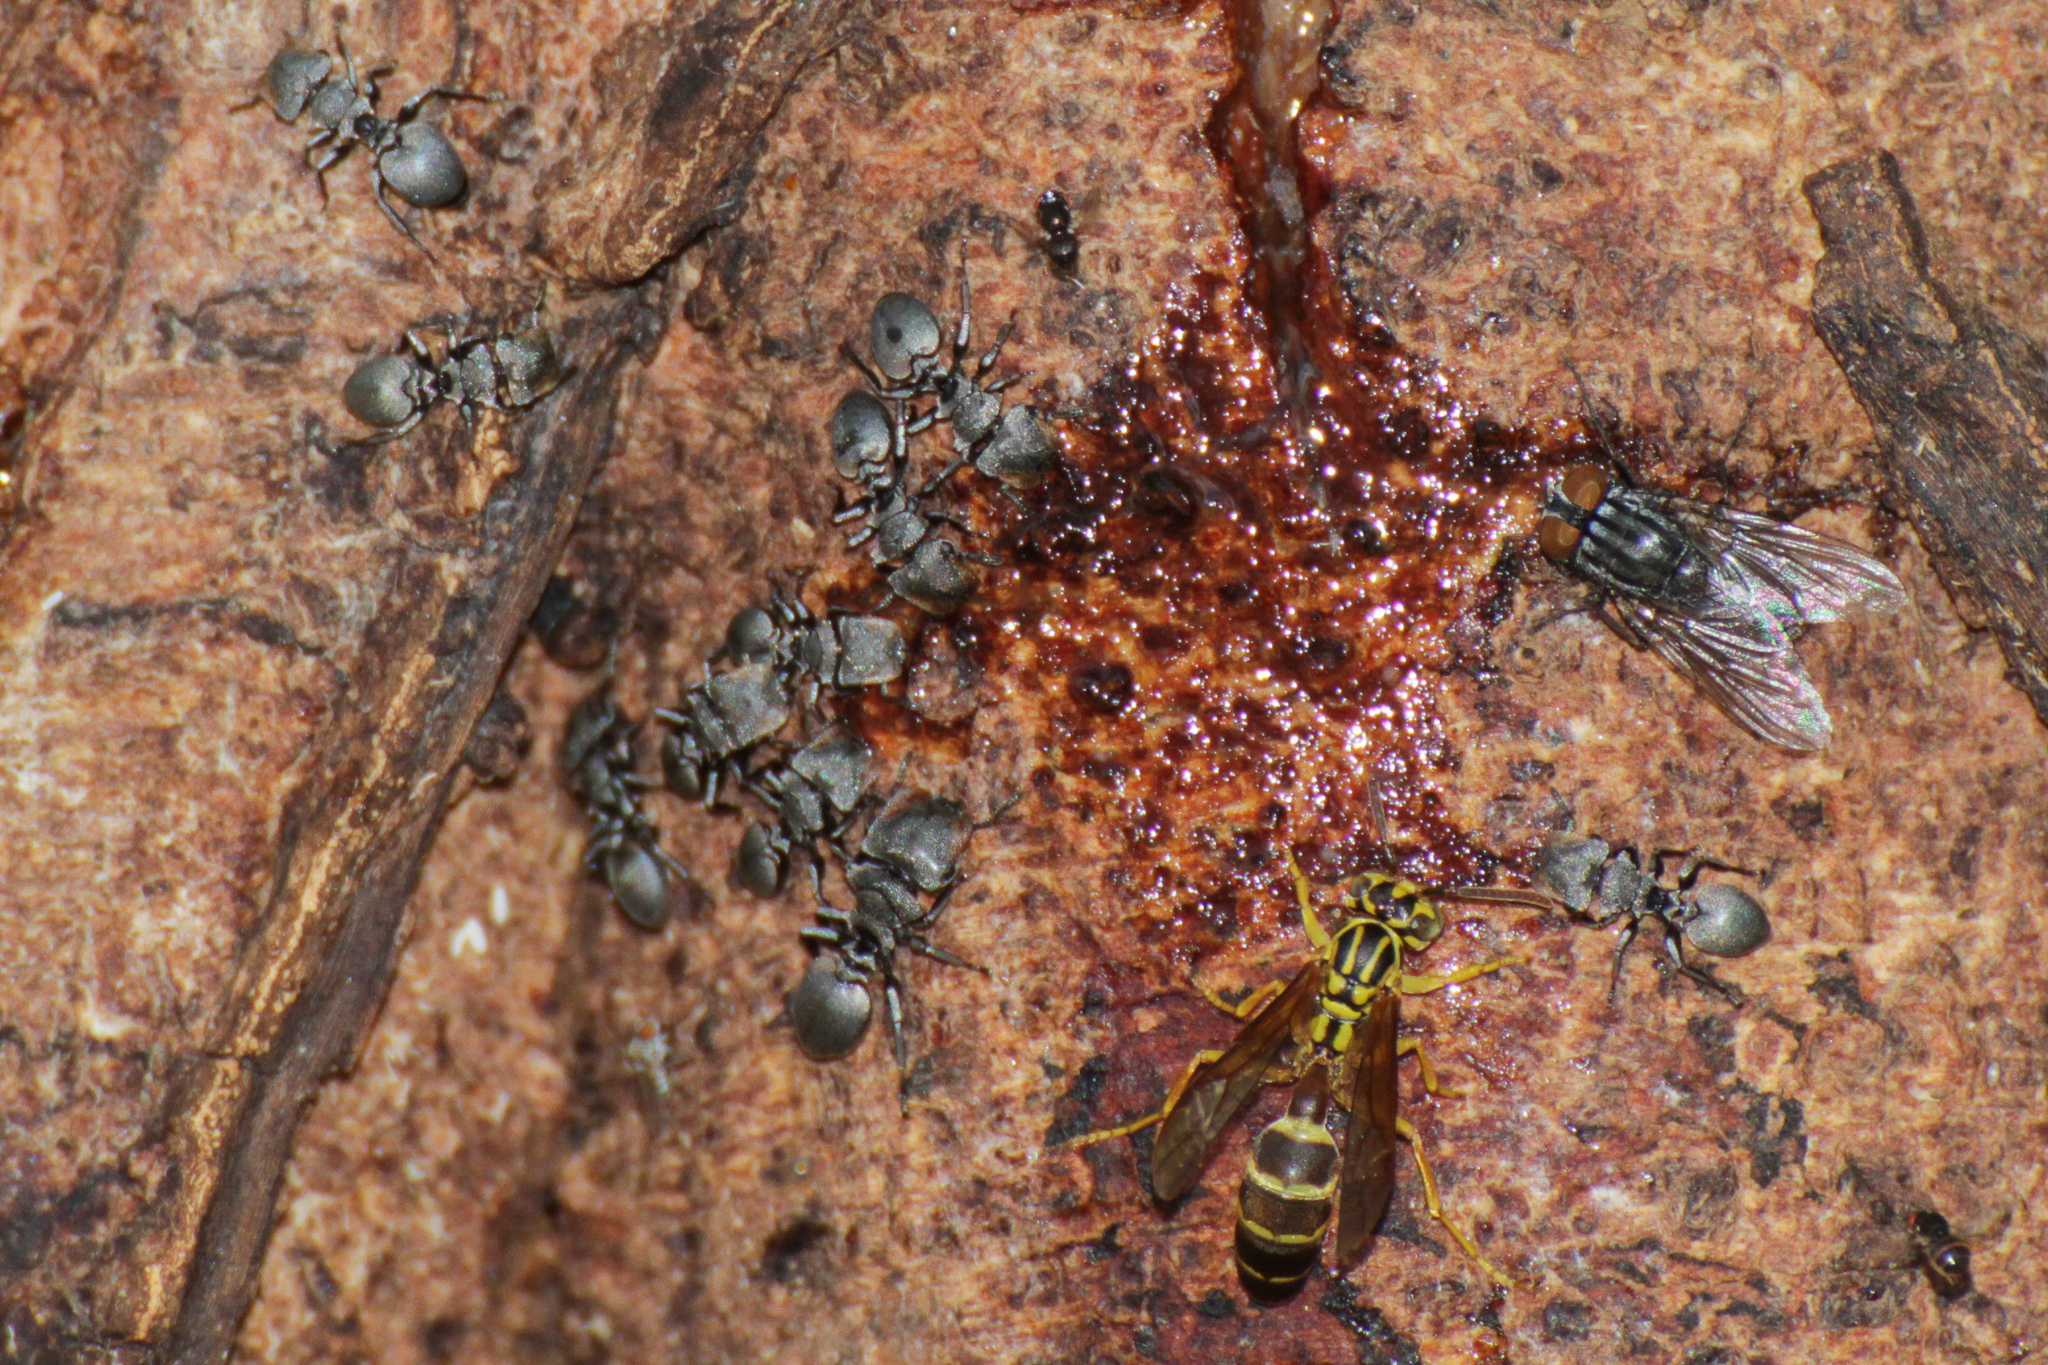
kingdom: Animalia
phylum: Arthropoda
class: Insecta
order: Hymenoptera
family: Formicidae
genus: Cephalotes
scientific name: Cephalotes multispinosus
